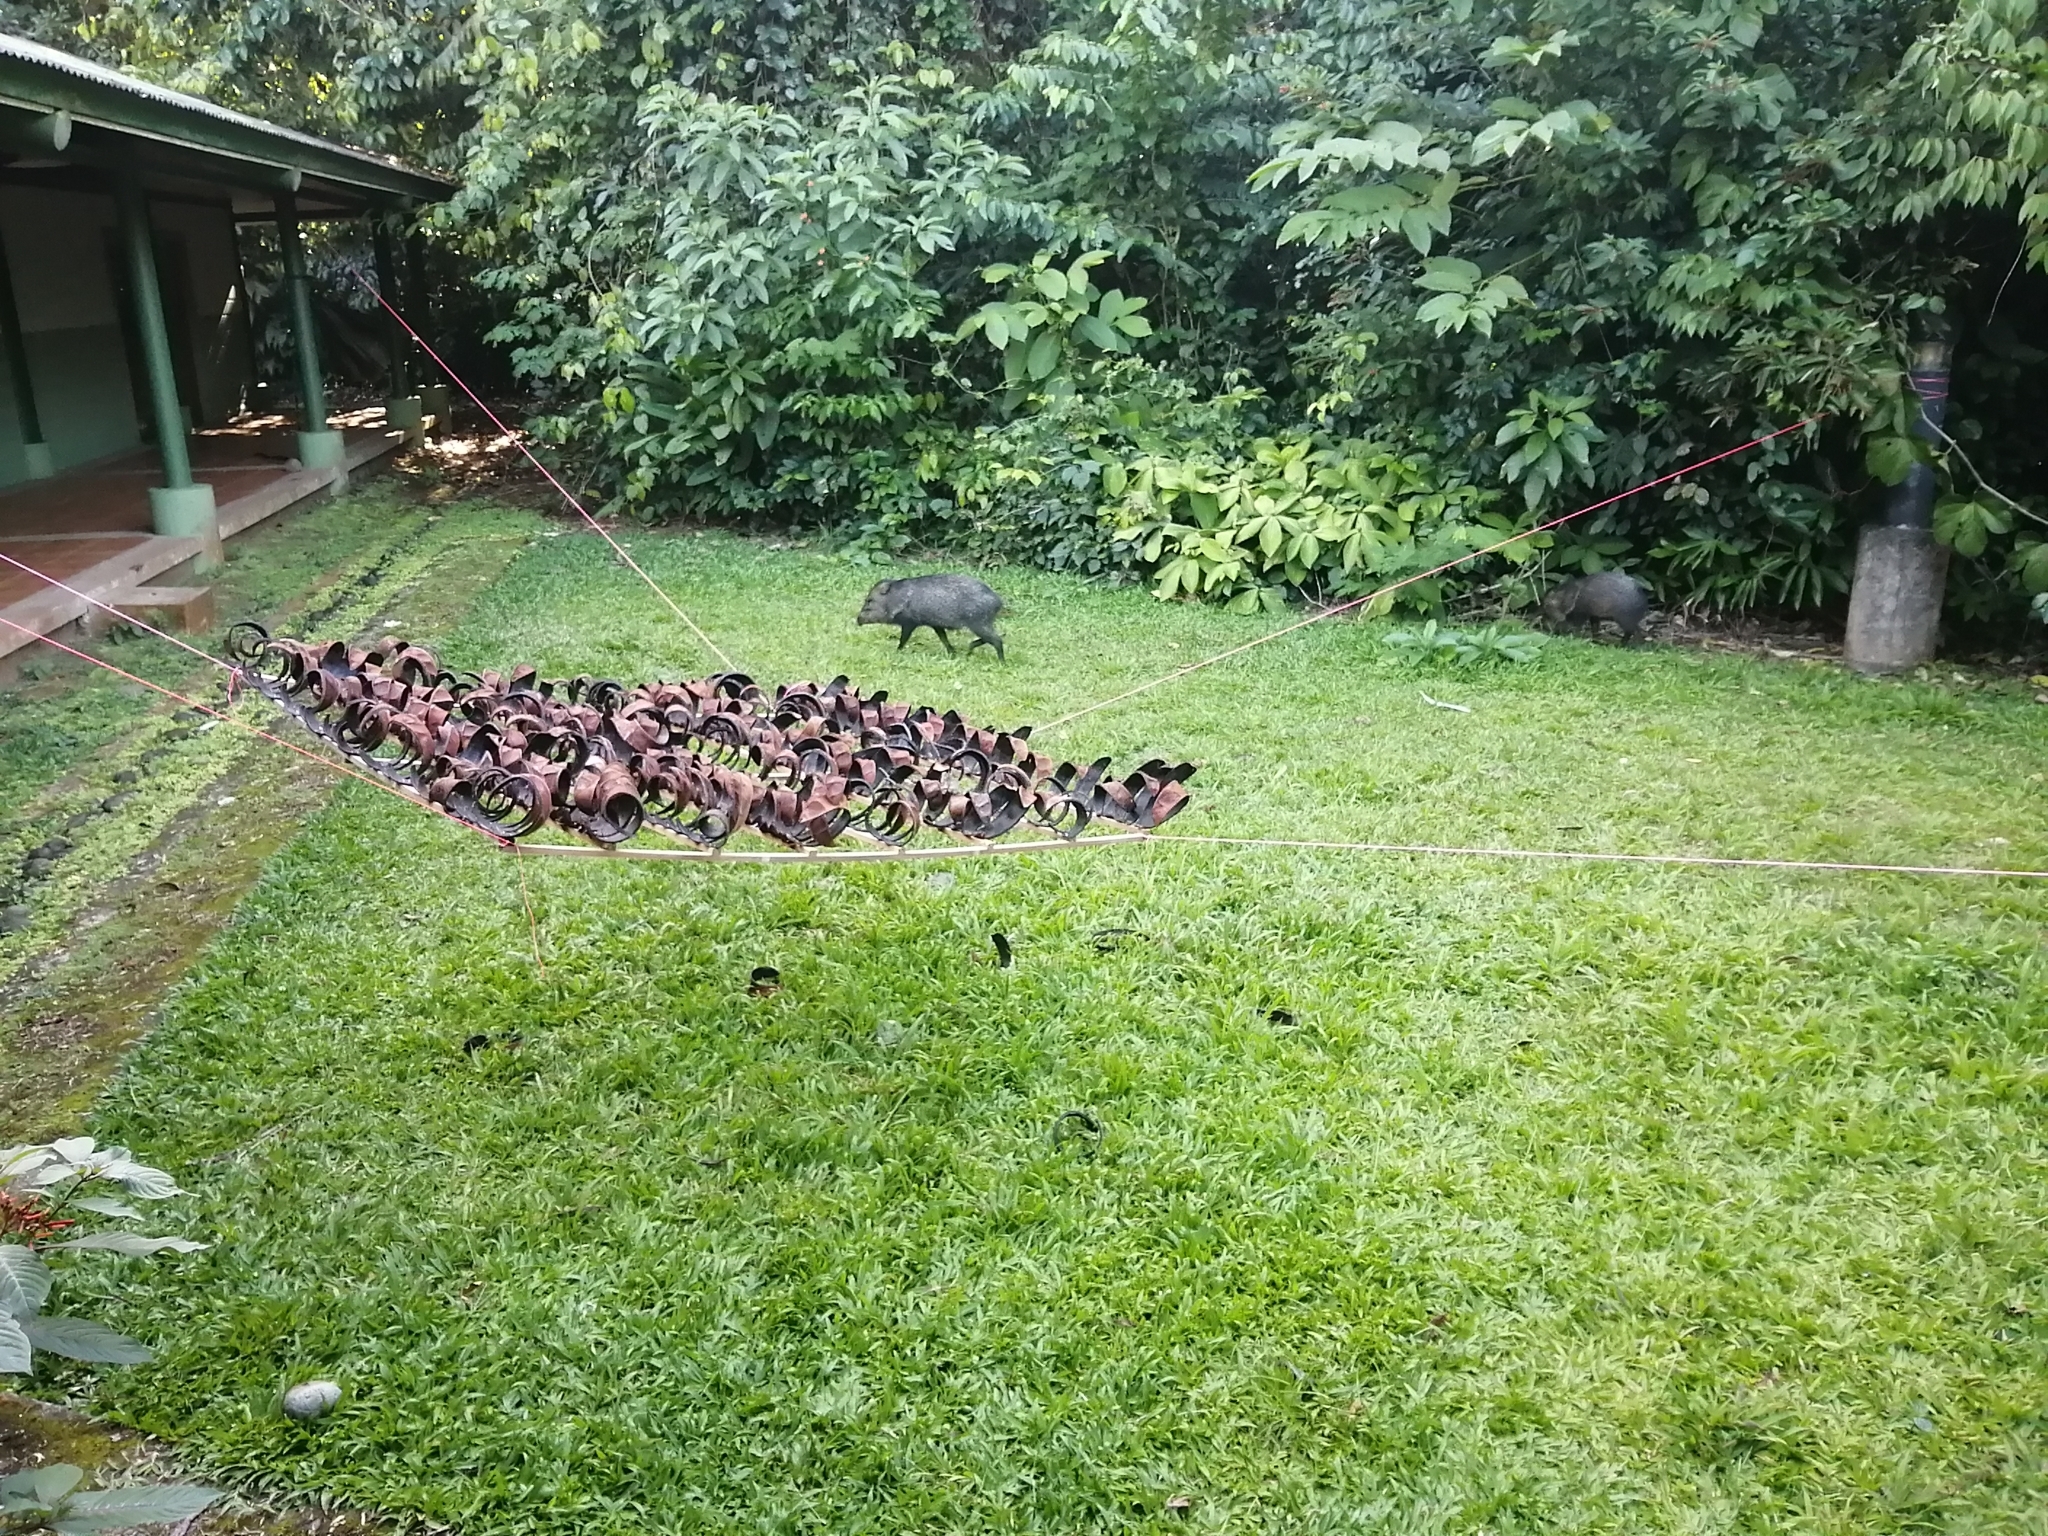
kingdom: Animalia
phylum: Chordata
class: Mammalia
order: Artiodactyla
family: Tayassuidae
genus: Pecari
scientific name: Pecari tajacu
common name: Collared peccary
